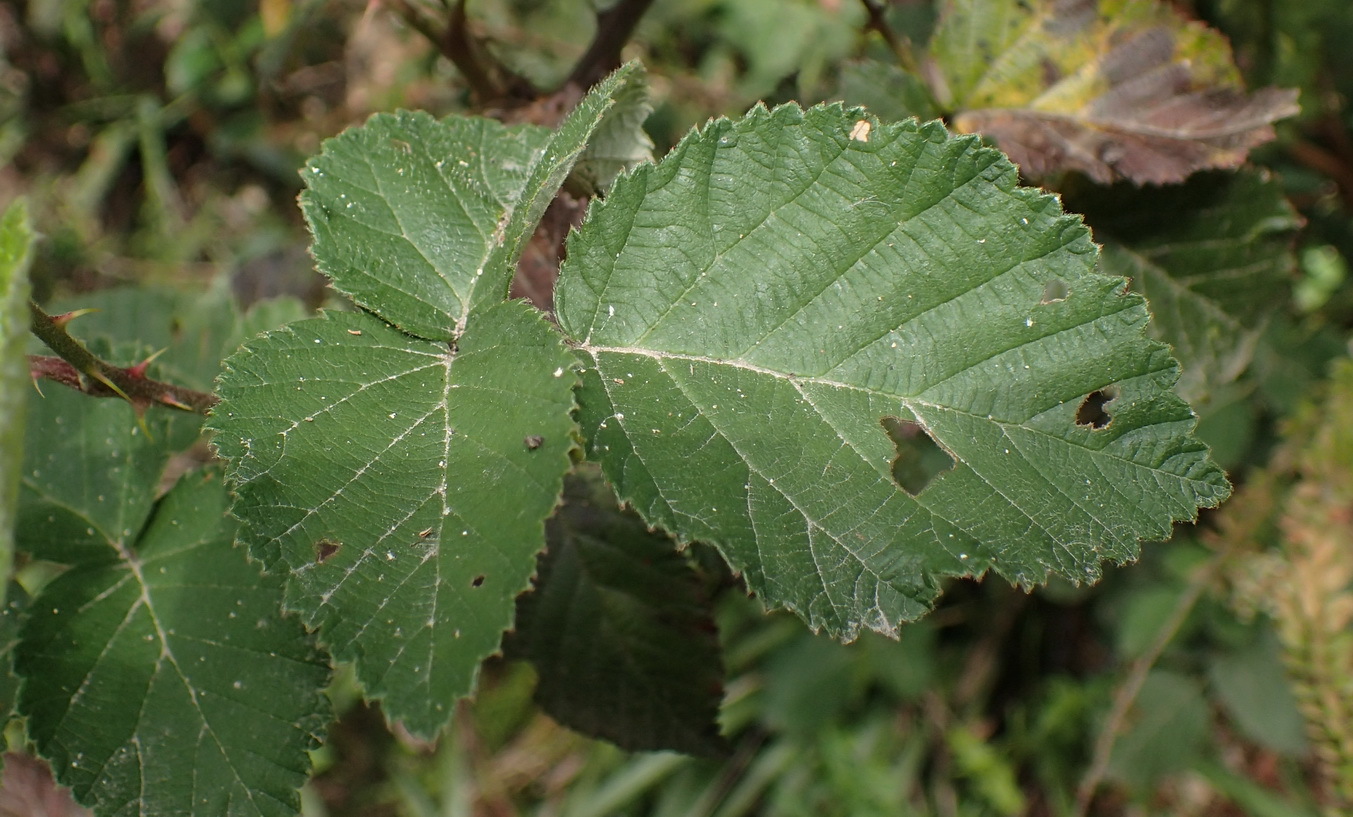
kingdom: Plantae
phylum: Tracheophyta
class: Magnoliopsida
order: Rosales
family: Rosaceae
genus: Rubus
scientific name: Rubus rigidus
